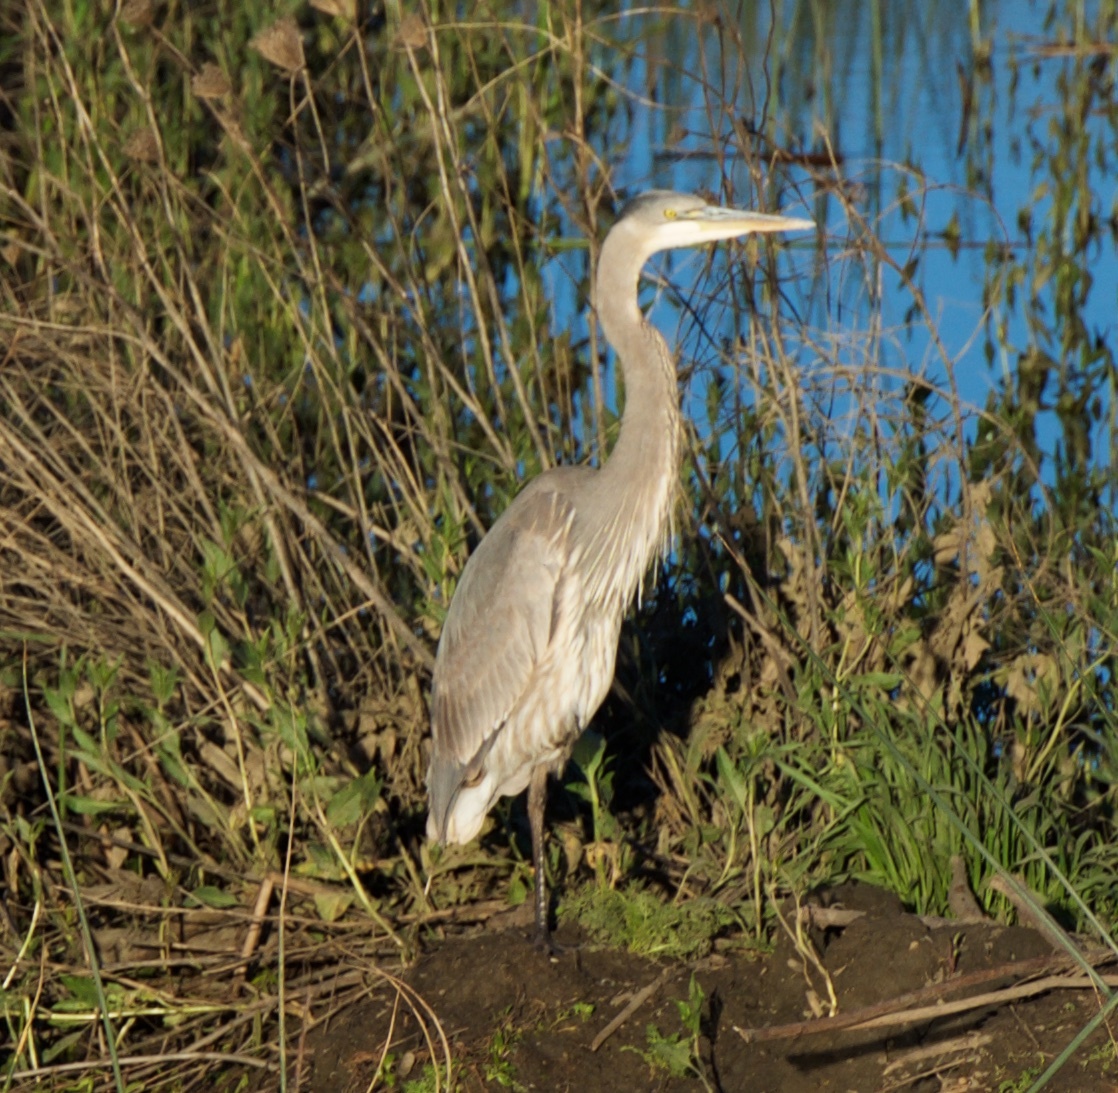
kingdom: Animalia
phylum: Chordata
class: Aves
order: Pelecaniformes
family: Ardeidae
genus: Ardea
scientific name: Ardea herodias
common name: Great blue heron
